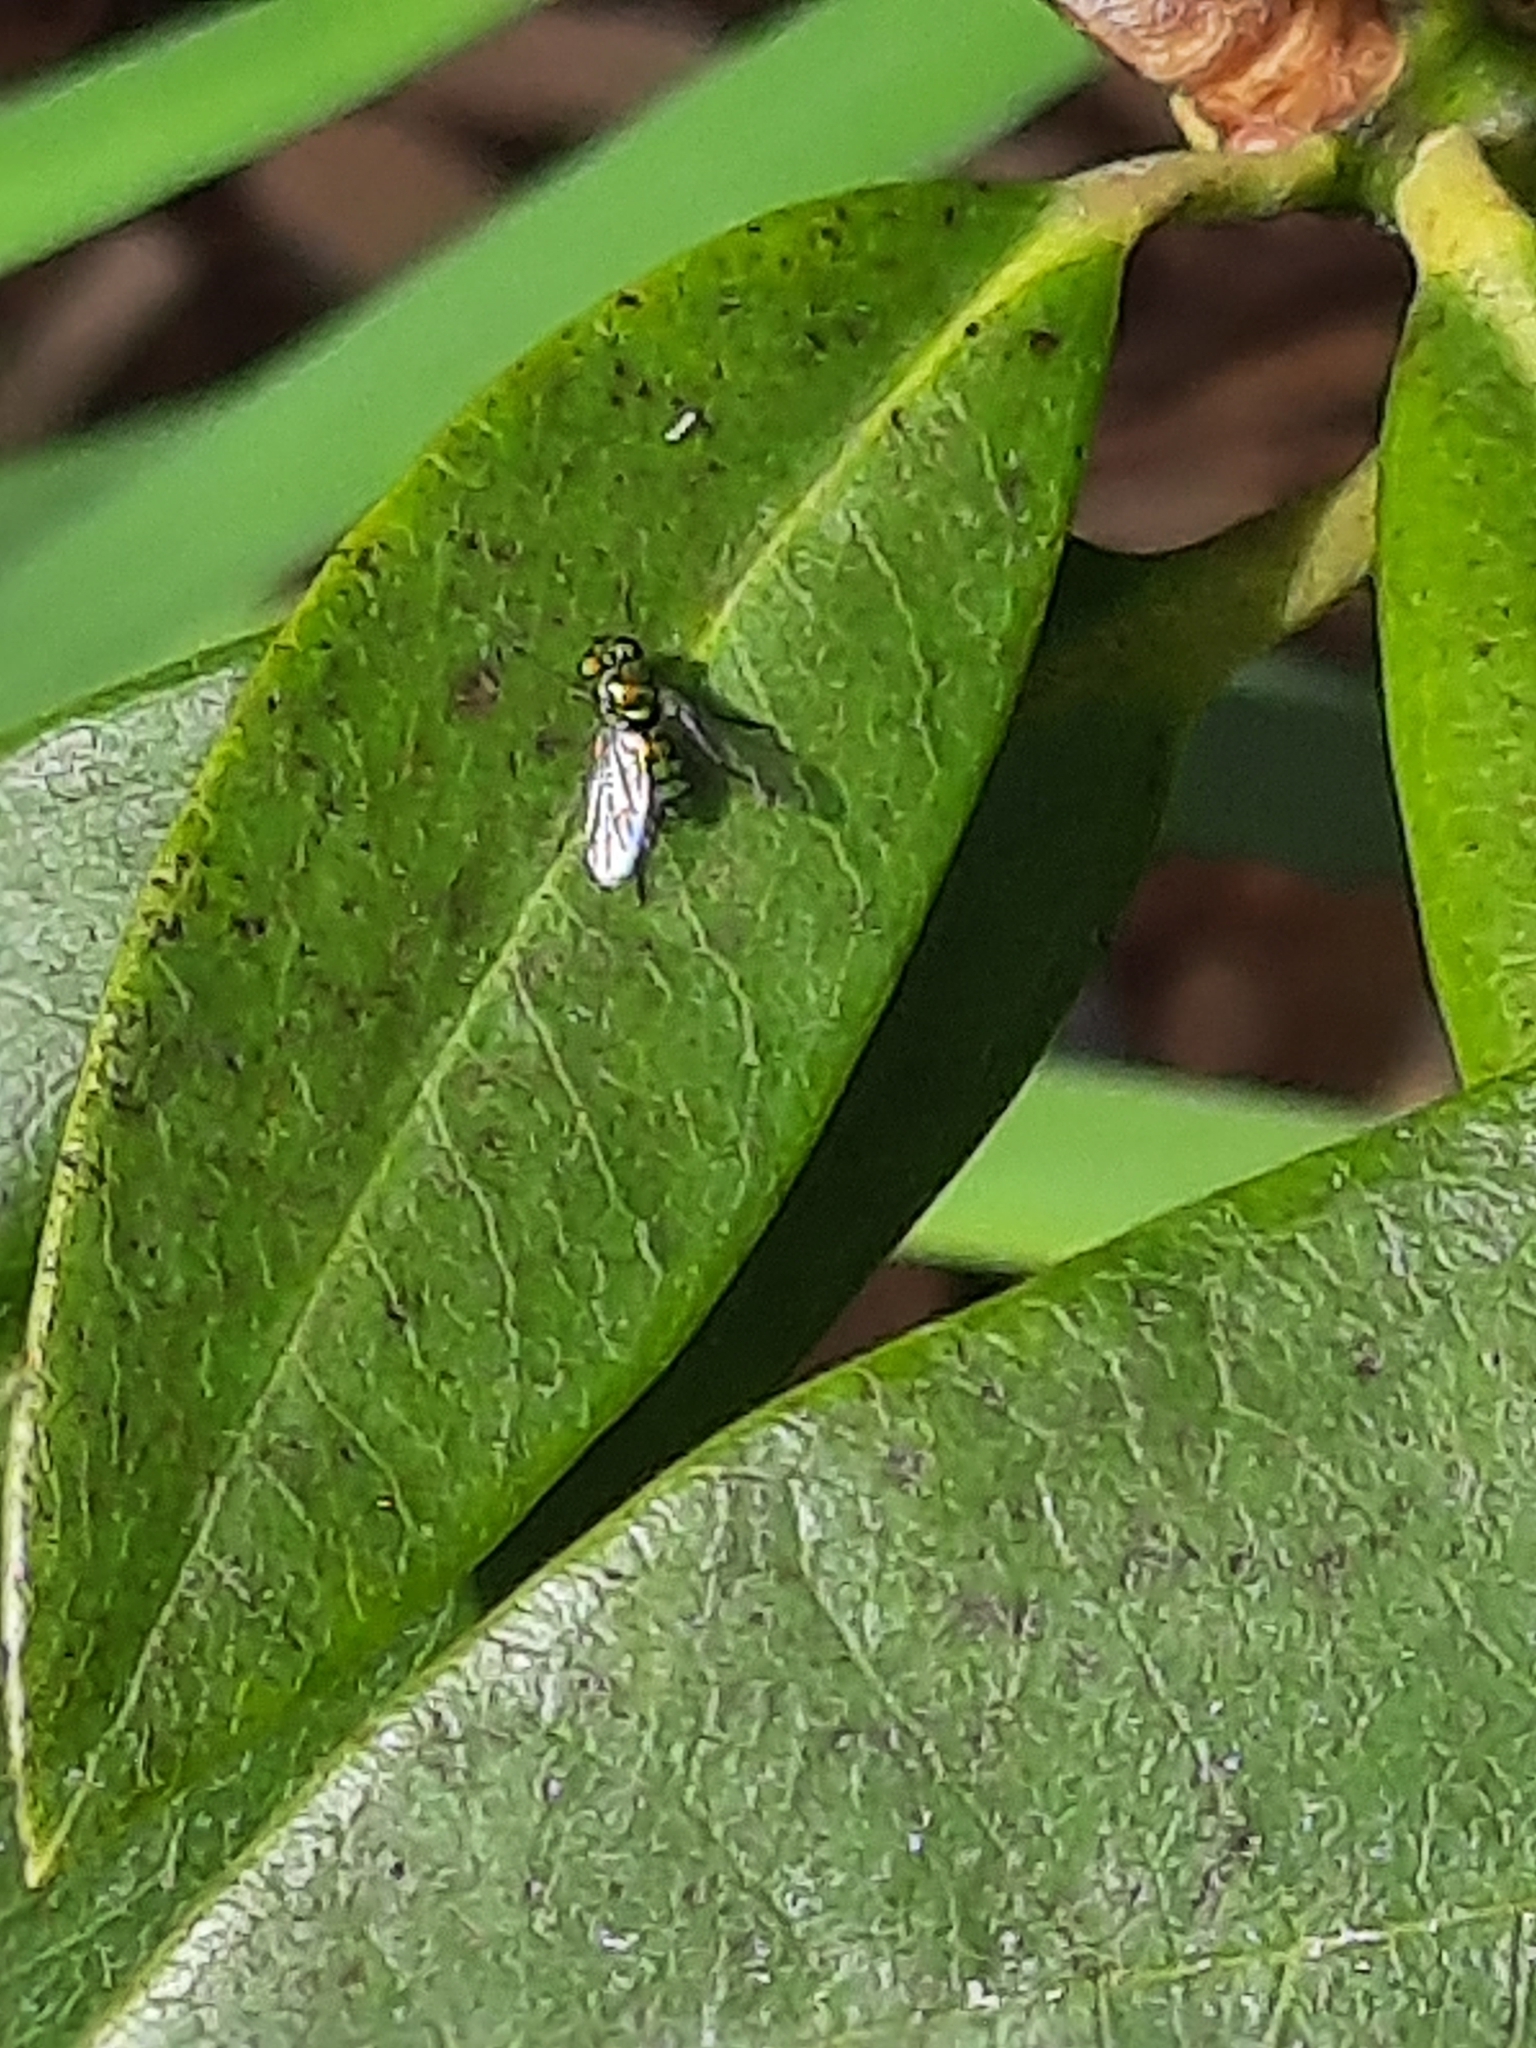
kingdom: Animalia
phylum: Arthropoda
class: Insecta
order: Diptera
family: Dolichopodidae
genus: Condylostylus
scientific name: Condylostylus
